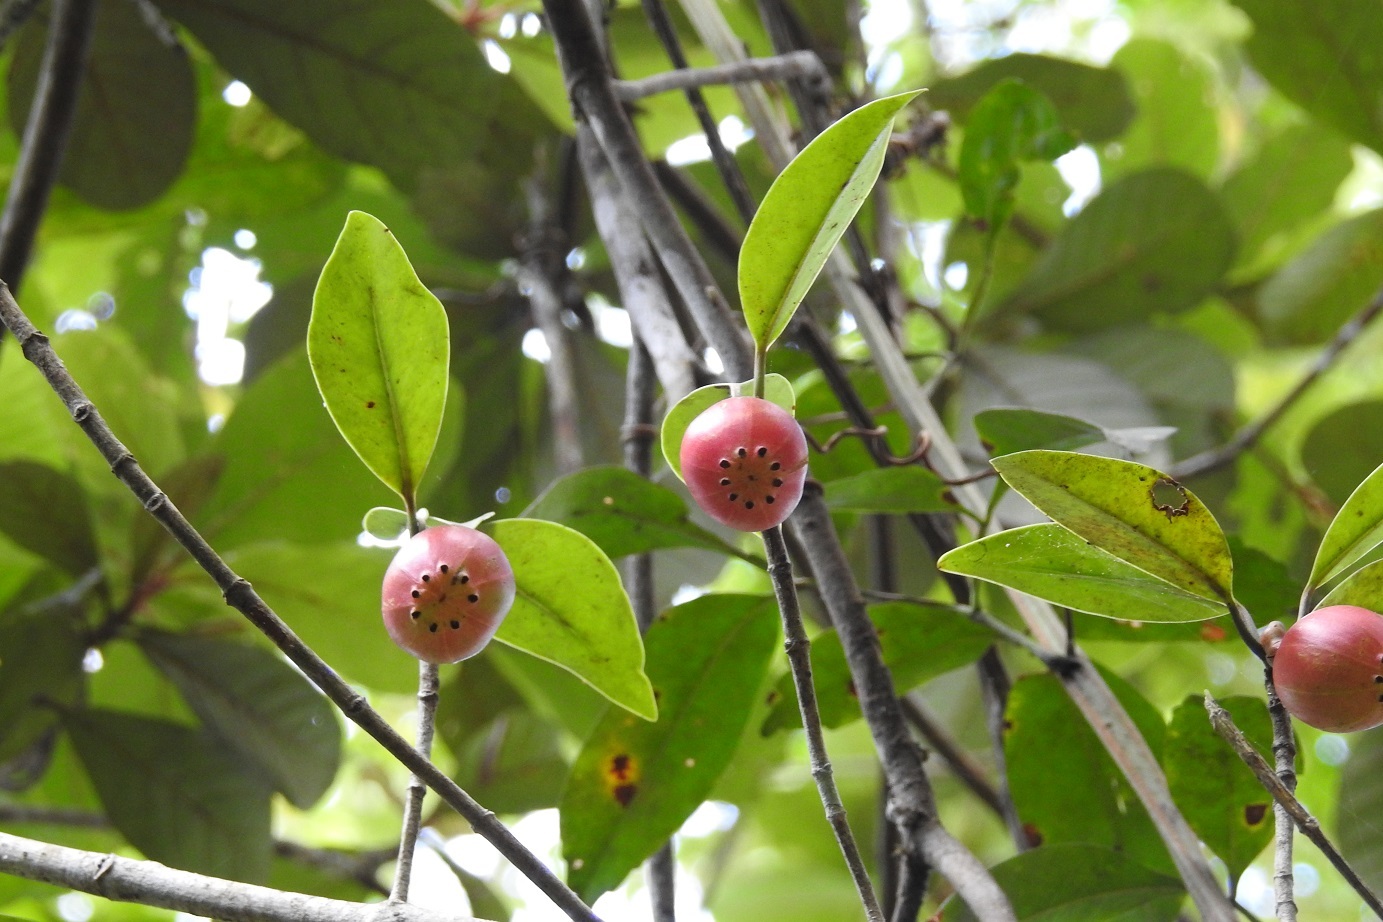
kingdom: Plantae
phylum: Tracheophyta
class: Magnoliopsida
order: Malpighiales
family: Clusiaceae
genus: Clusia
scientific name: Clusia minor
